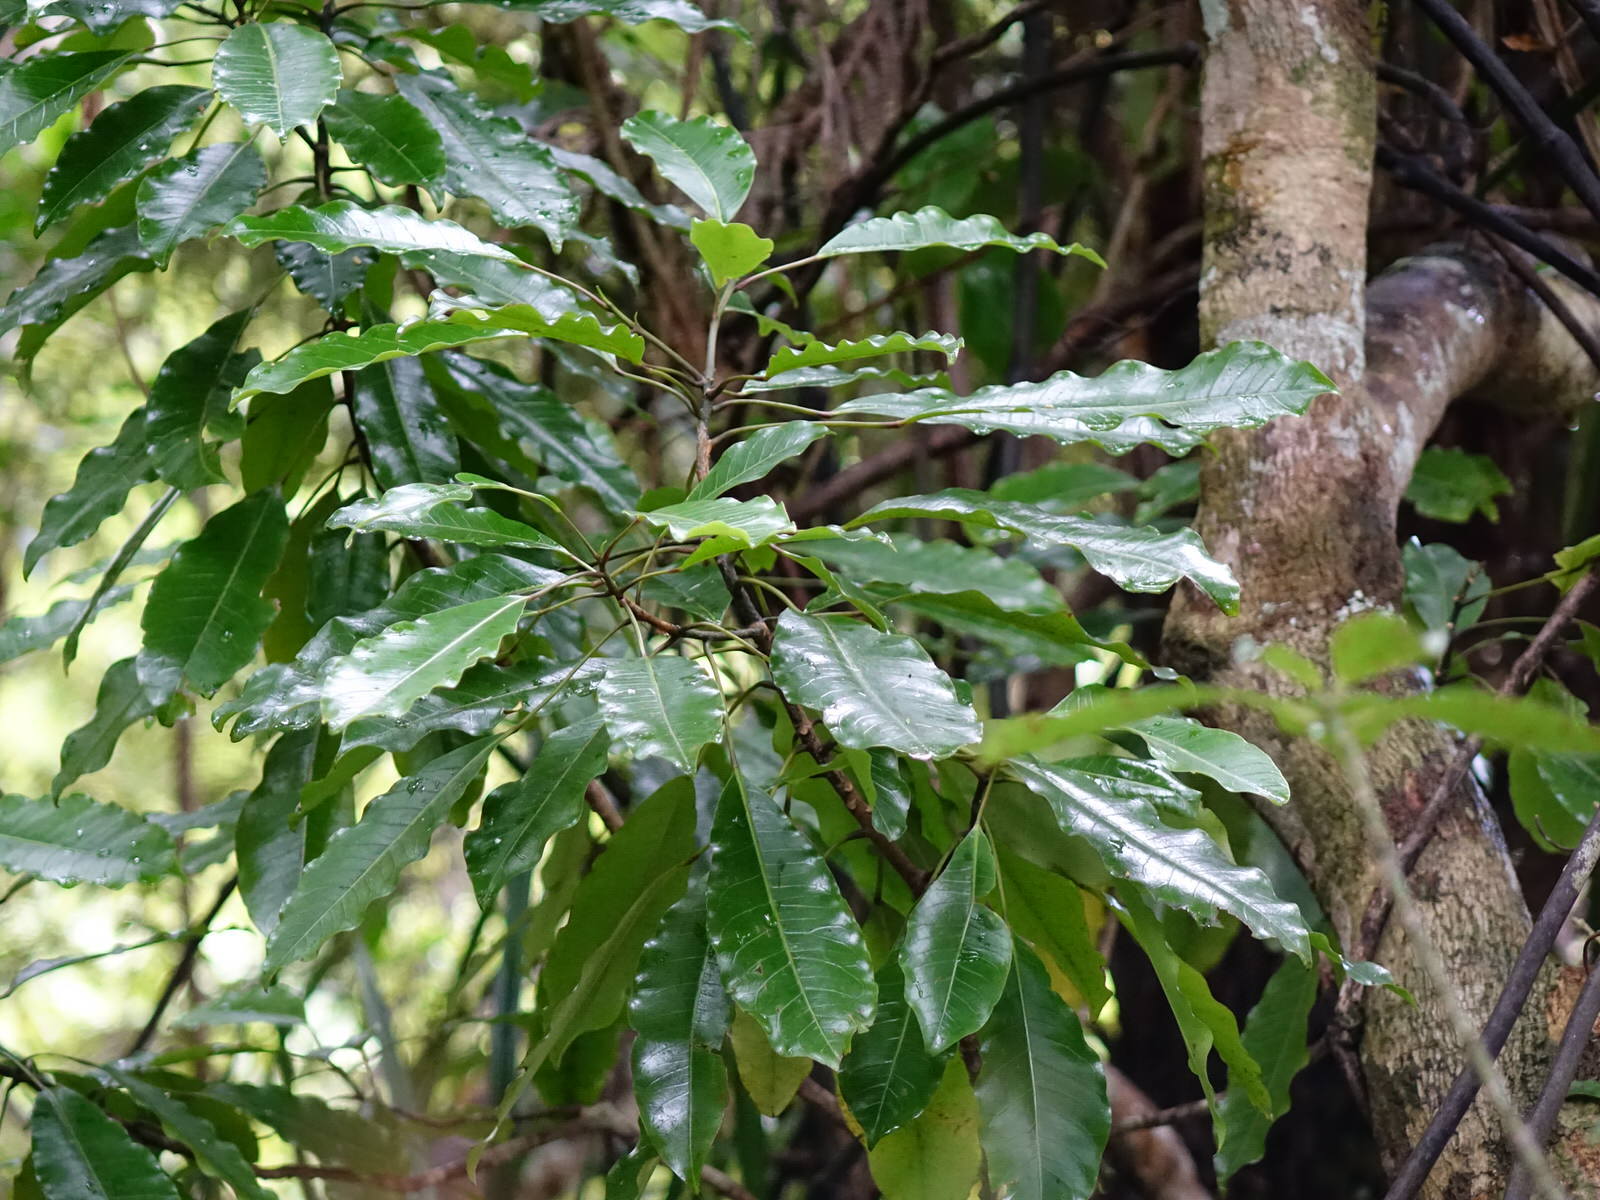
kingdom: Plantae
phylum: Tracheophyta
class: Magnoliopsida
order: Apiales
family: Araliaceae
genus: Raukaua
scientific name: Raukaua edgerleyi
